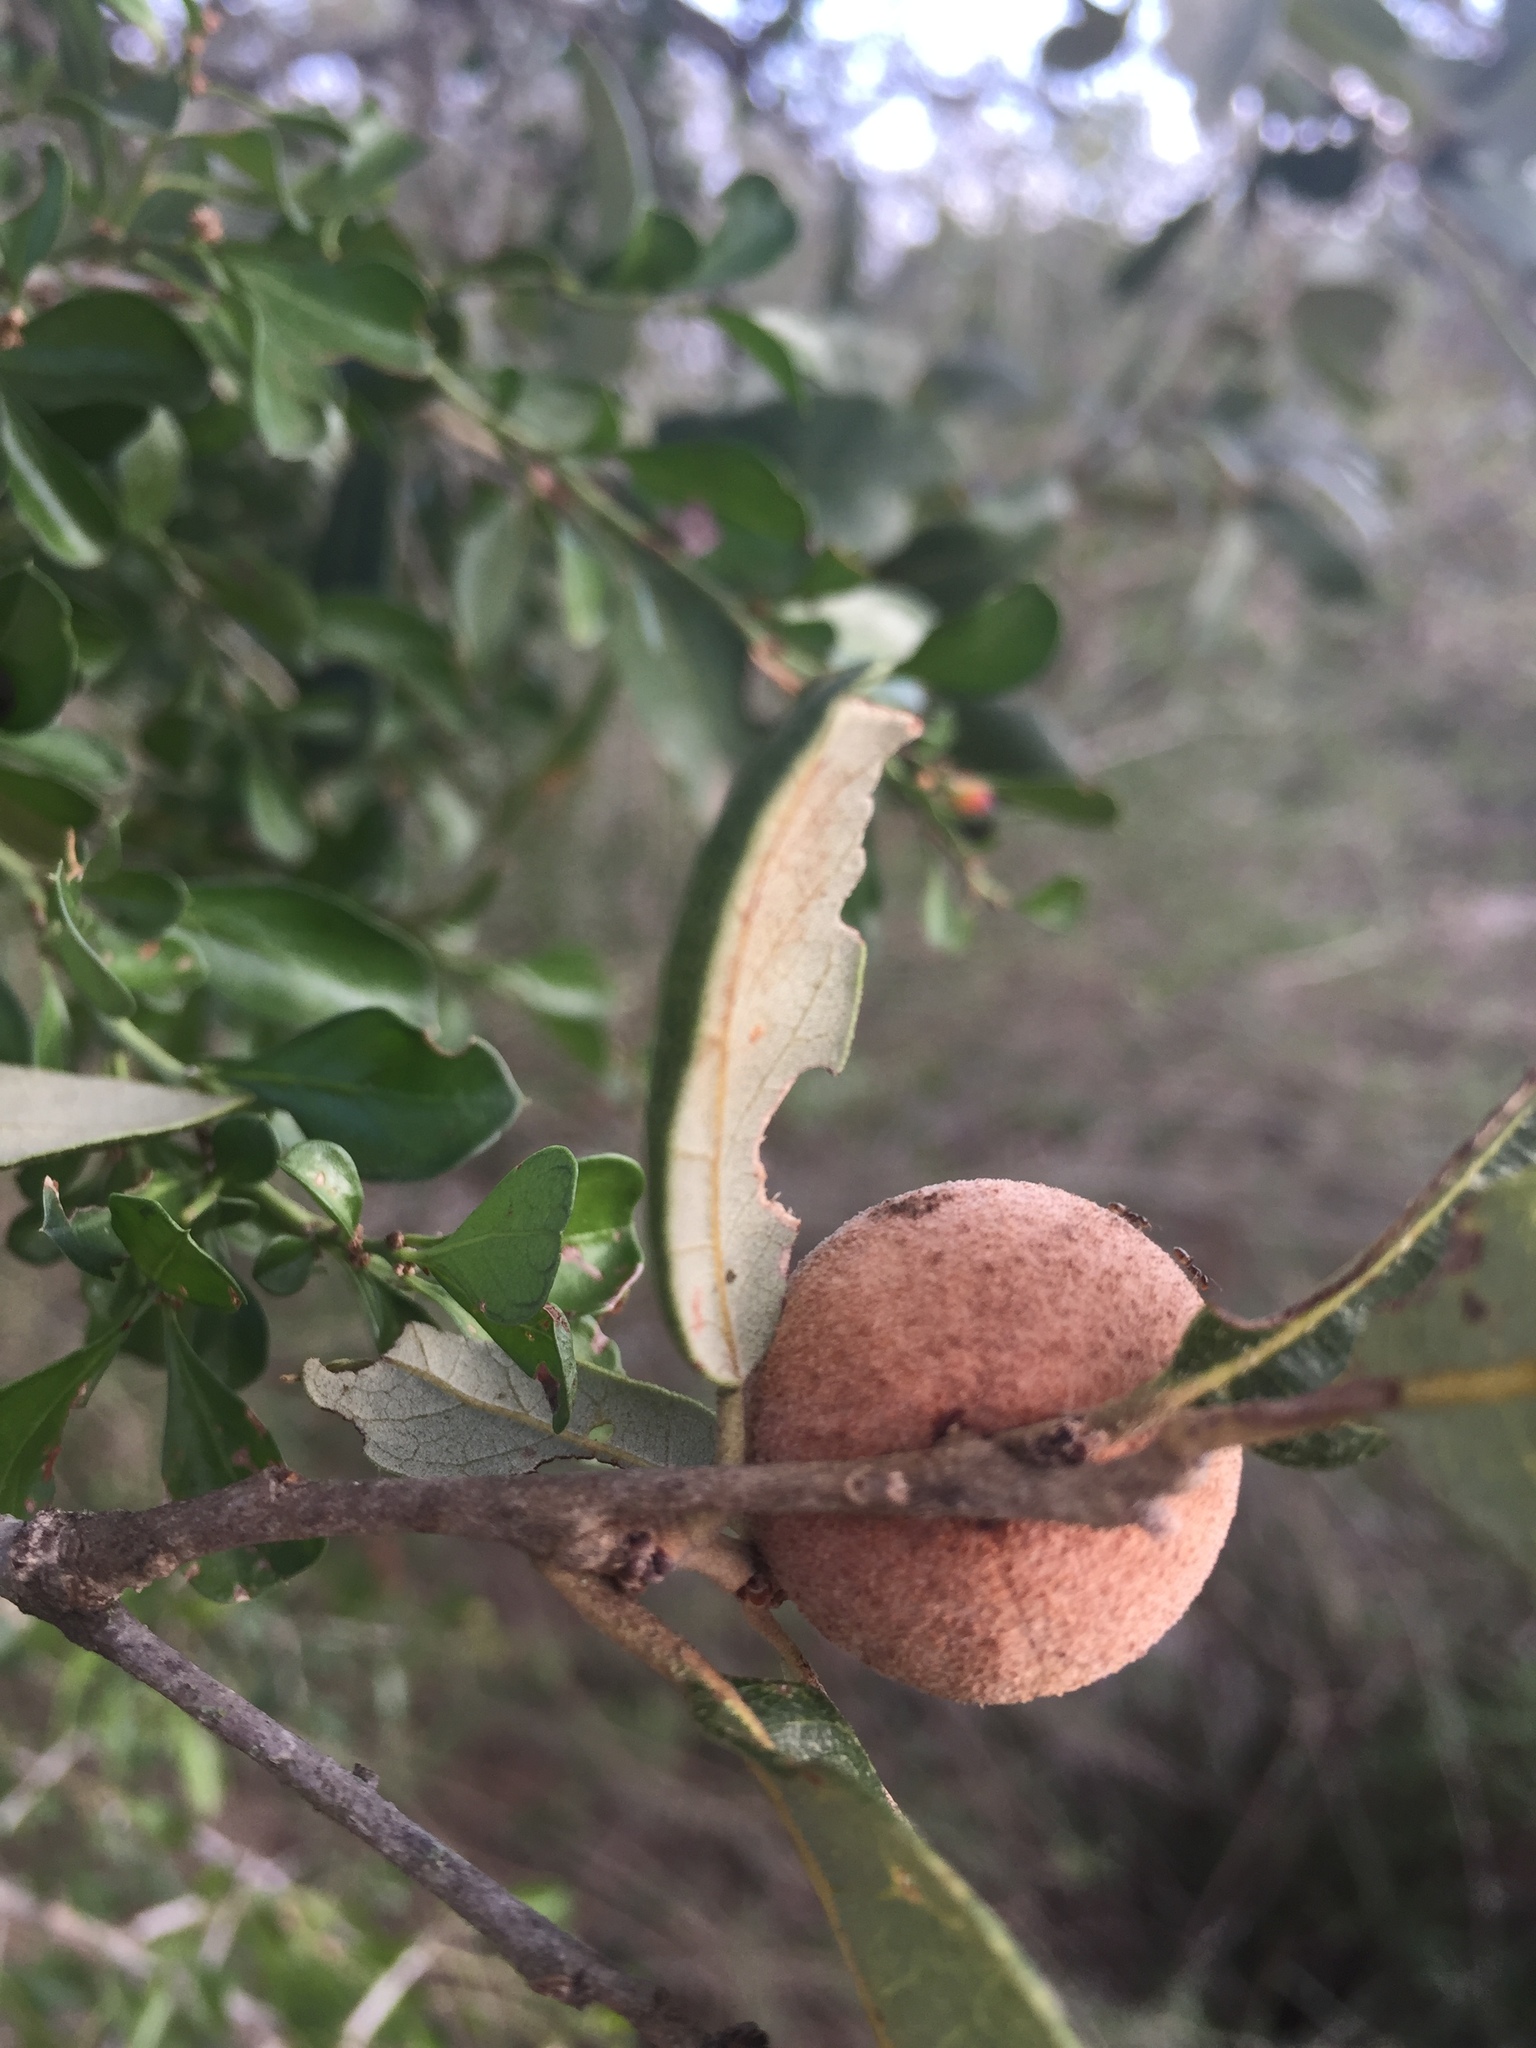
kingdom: Animalia
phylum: Arthropoda
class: Insecta
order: Hymenoptera
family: Cynipidae
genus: Disholcaspis
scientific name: Disholcaspis
